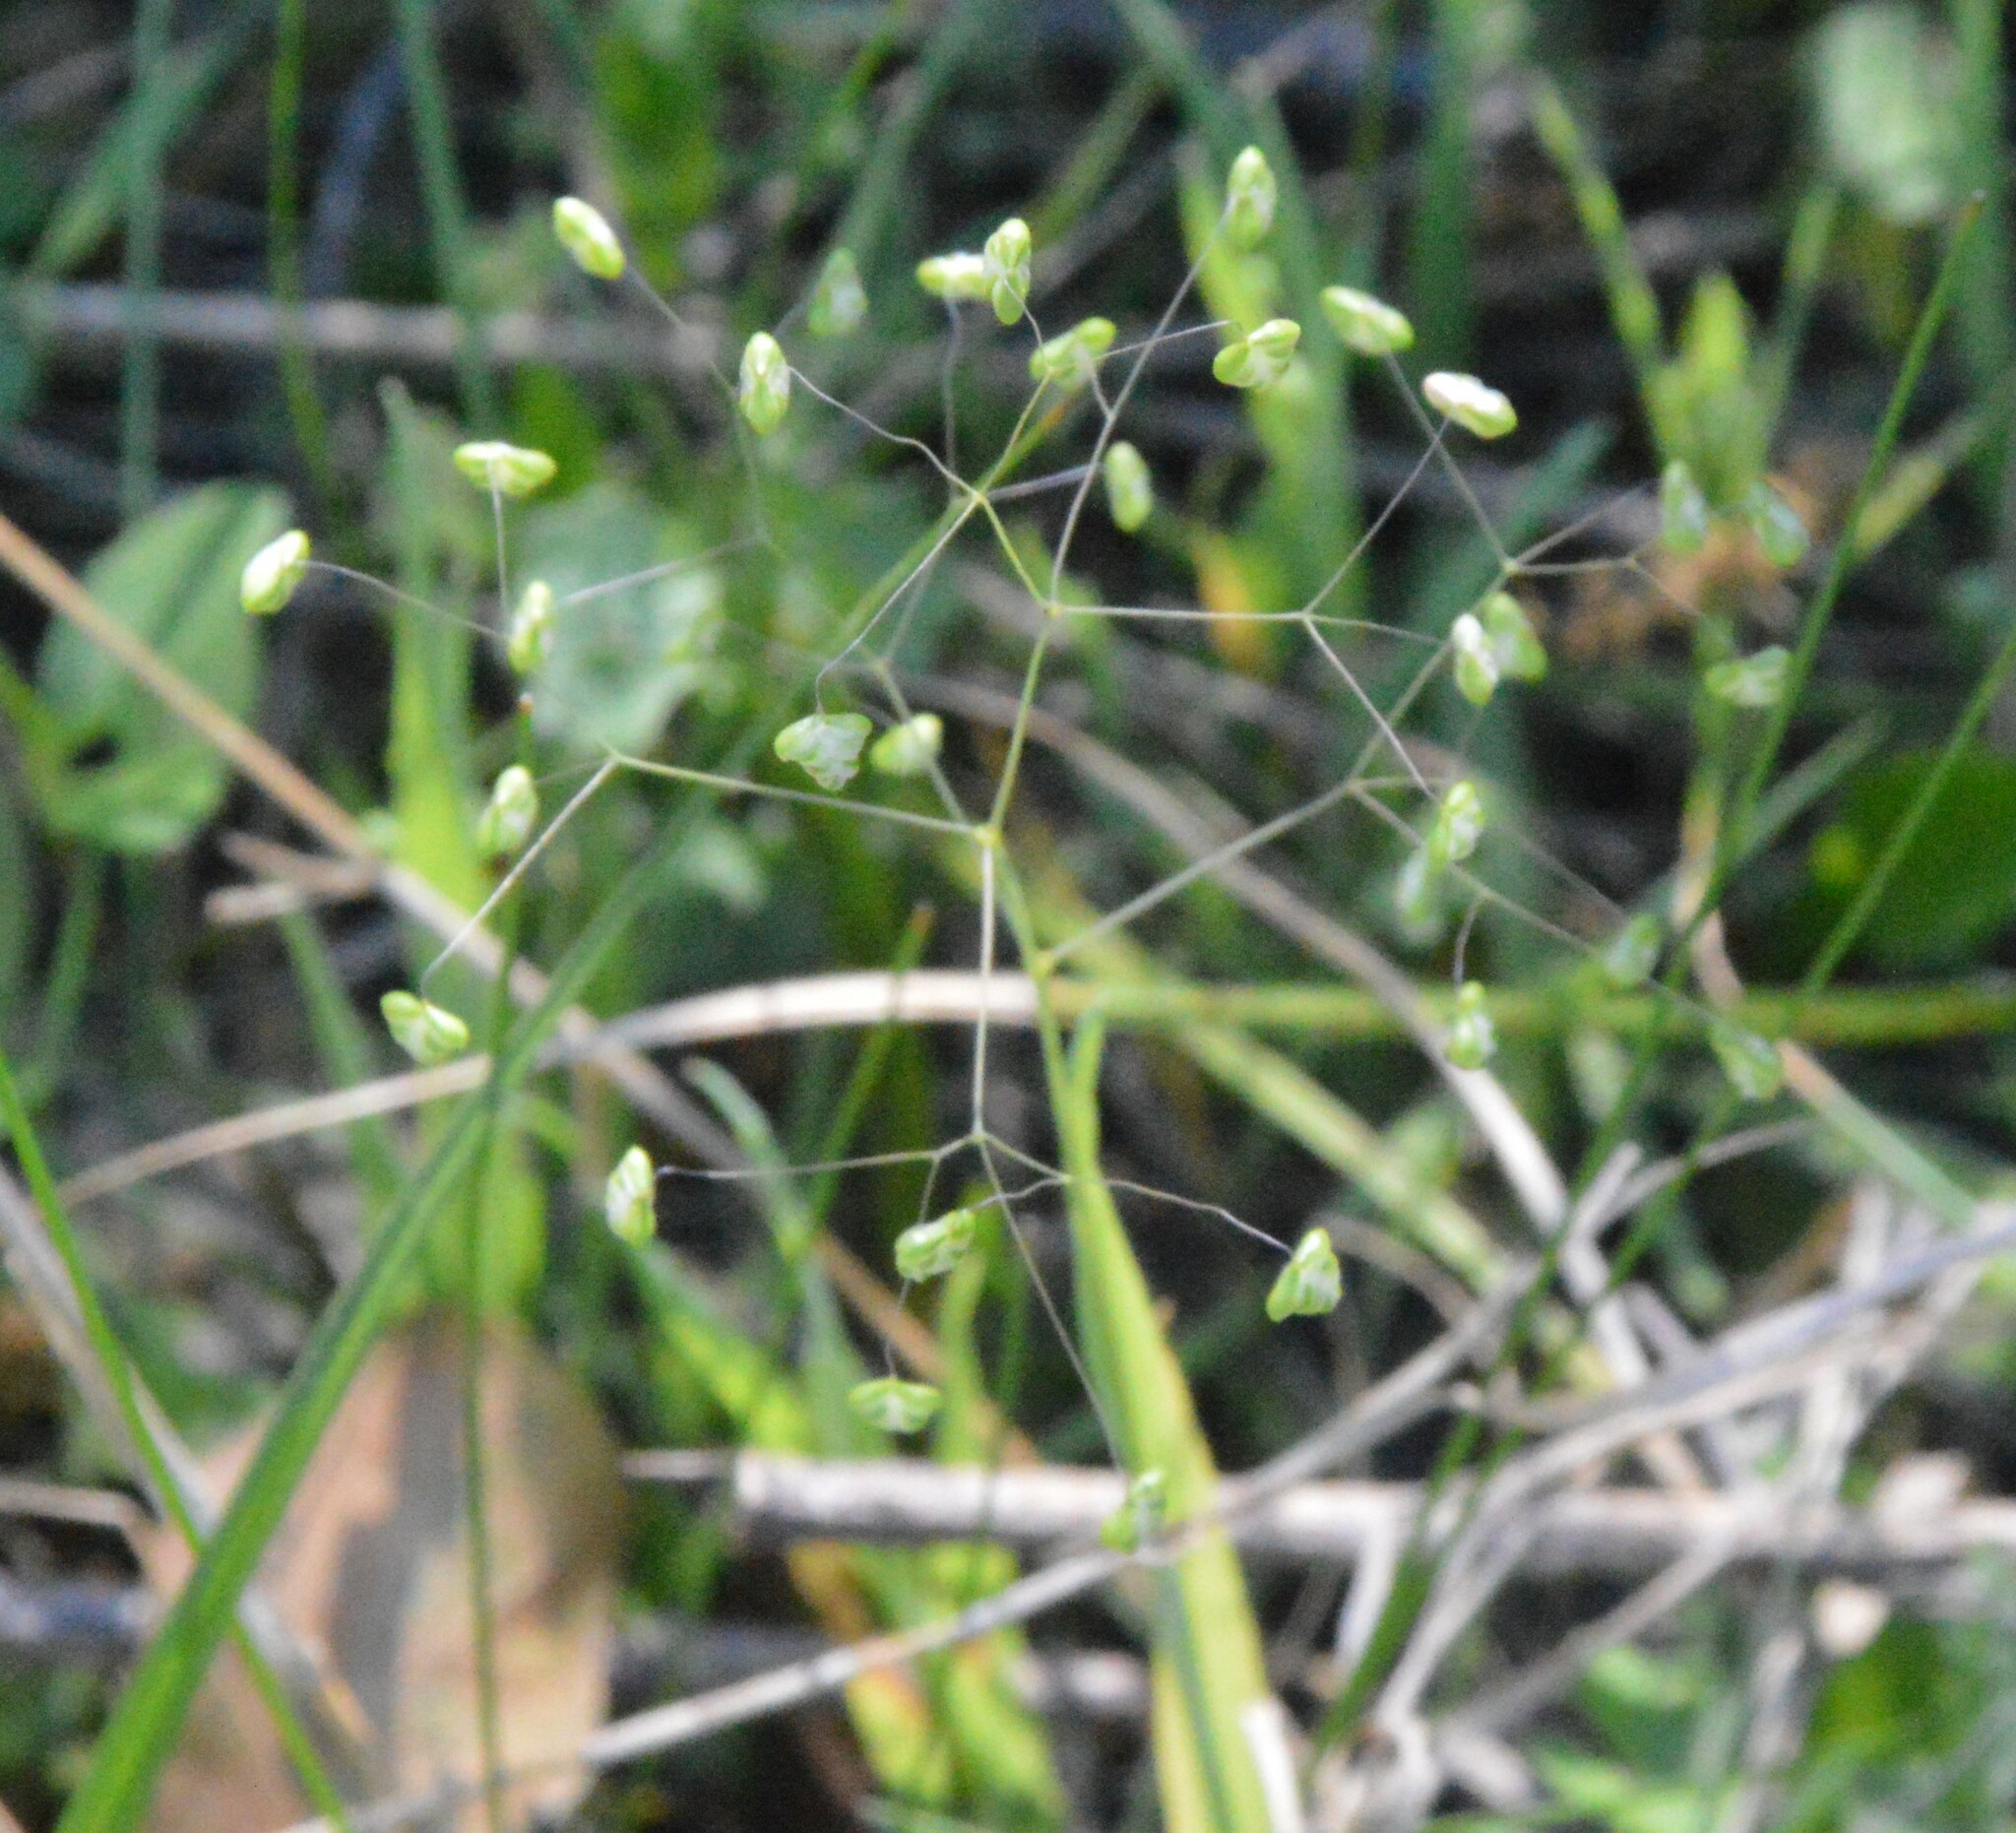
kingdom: Plantae
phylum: Tracheophyta
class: Liliopsida
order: Poales
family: Poaceae
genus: Briza
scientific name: Briza minor
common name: Lesser quaking-grass
